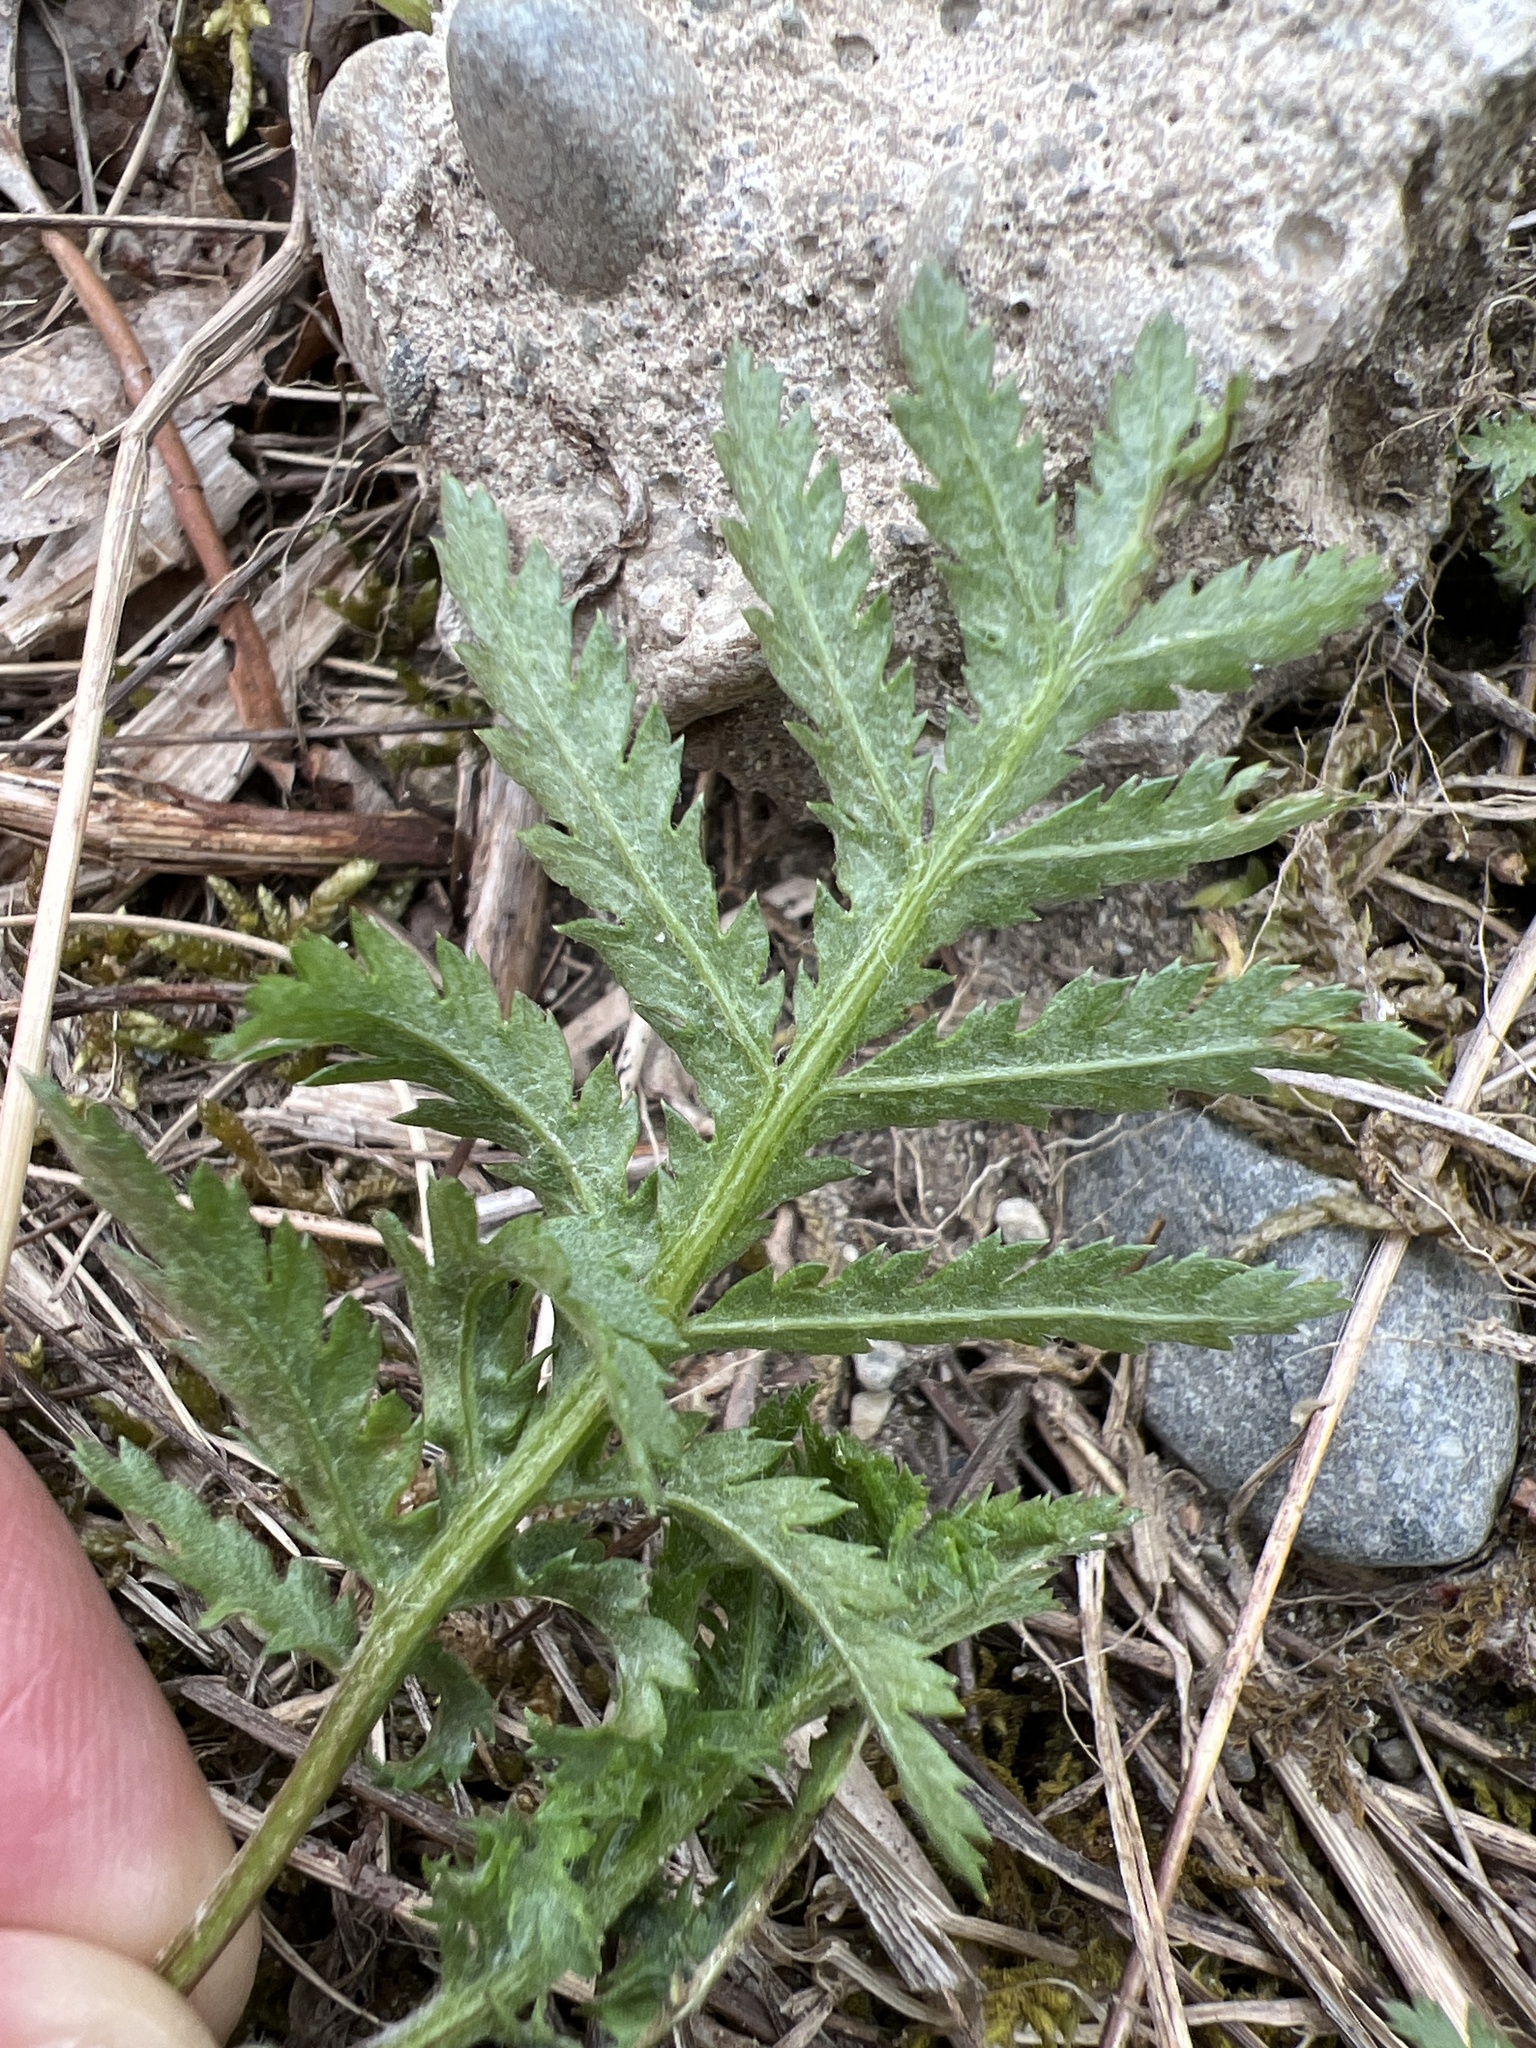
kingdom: Plantae
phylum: Tracheophyta
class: Magnoliopsida
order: Asterales
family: Asteraceae
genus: Tanacetum
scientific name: Tanacetum vulgare
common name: Common tansy
